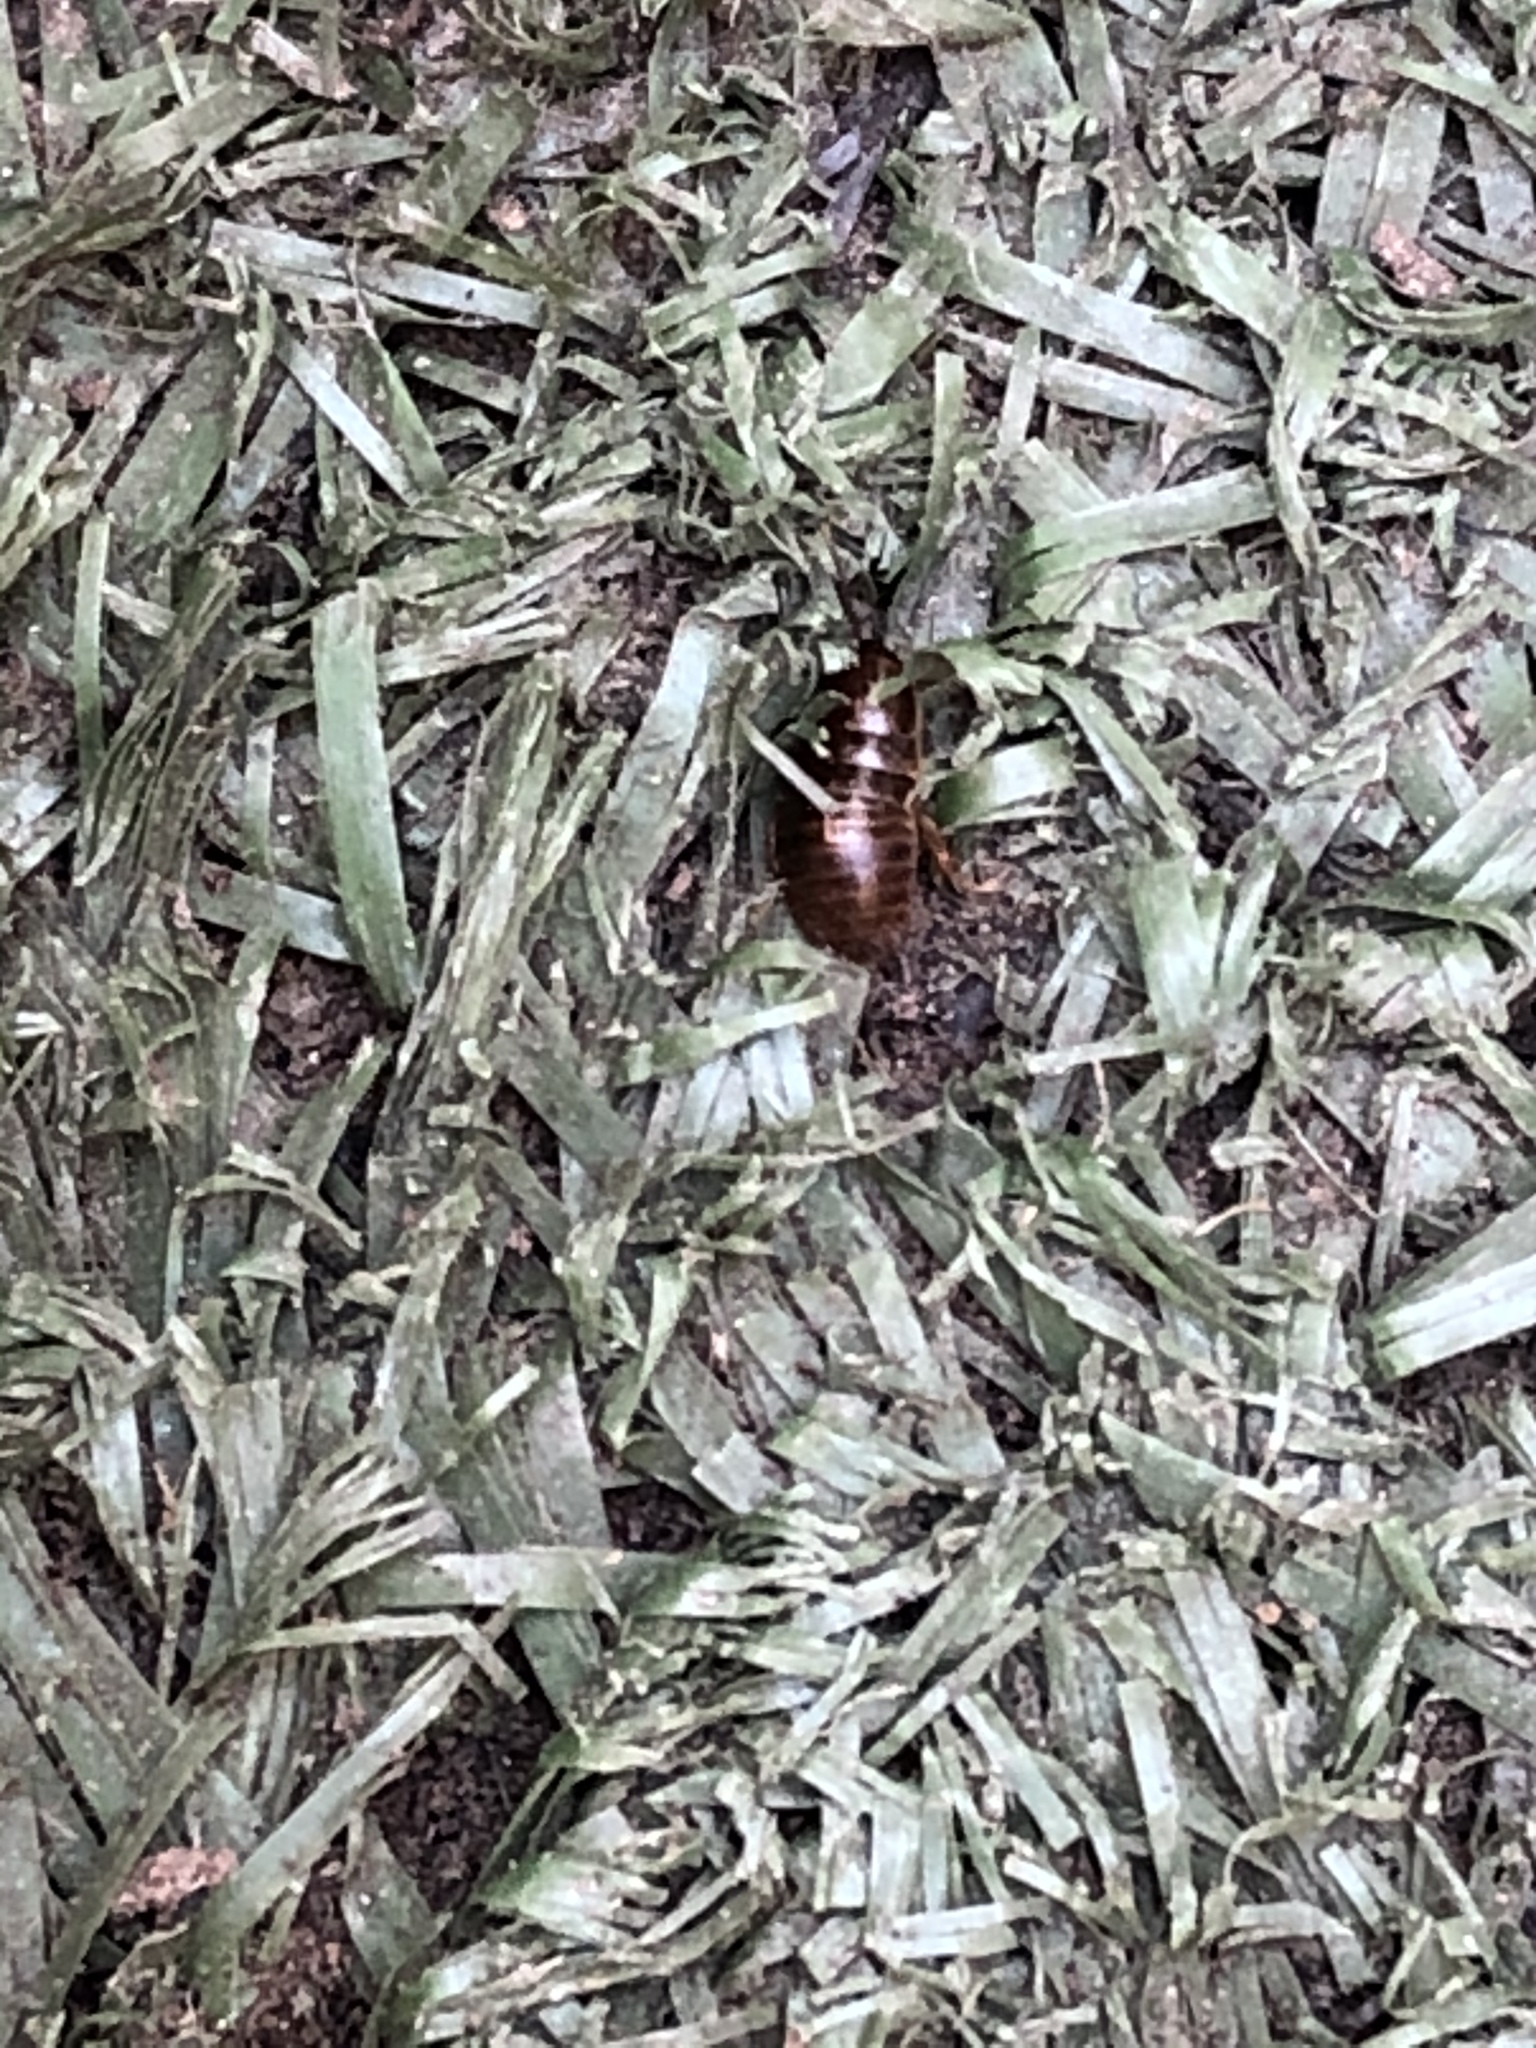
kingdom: Animalia
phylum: Arthropoda
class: Insecta
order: Blattodea
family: Blaberidae
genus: Pycnoscelus
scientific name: Pycnoscelus surinamensis
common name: Surinam cockroach
